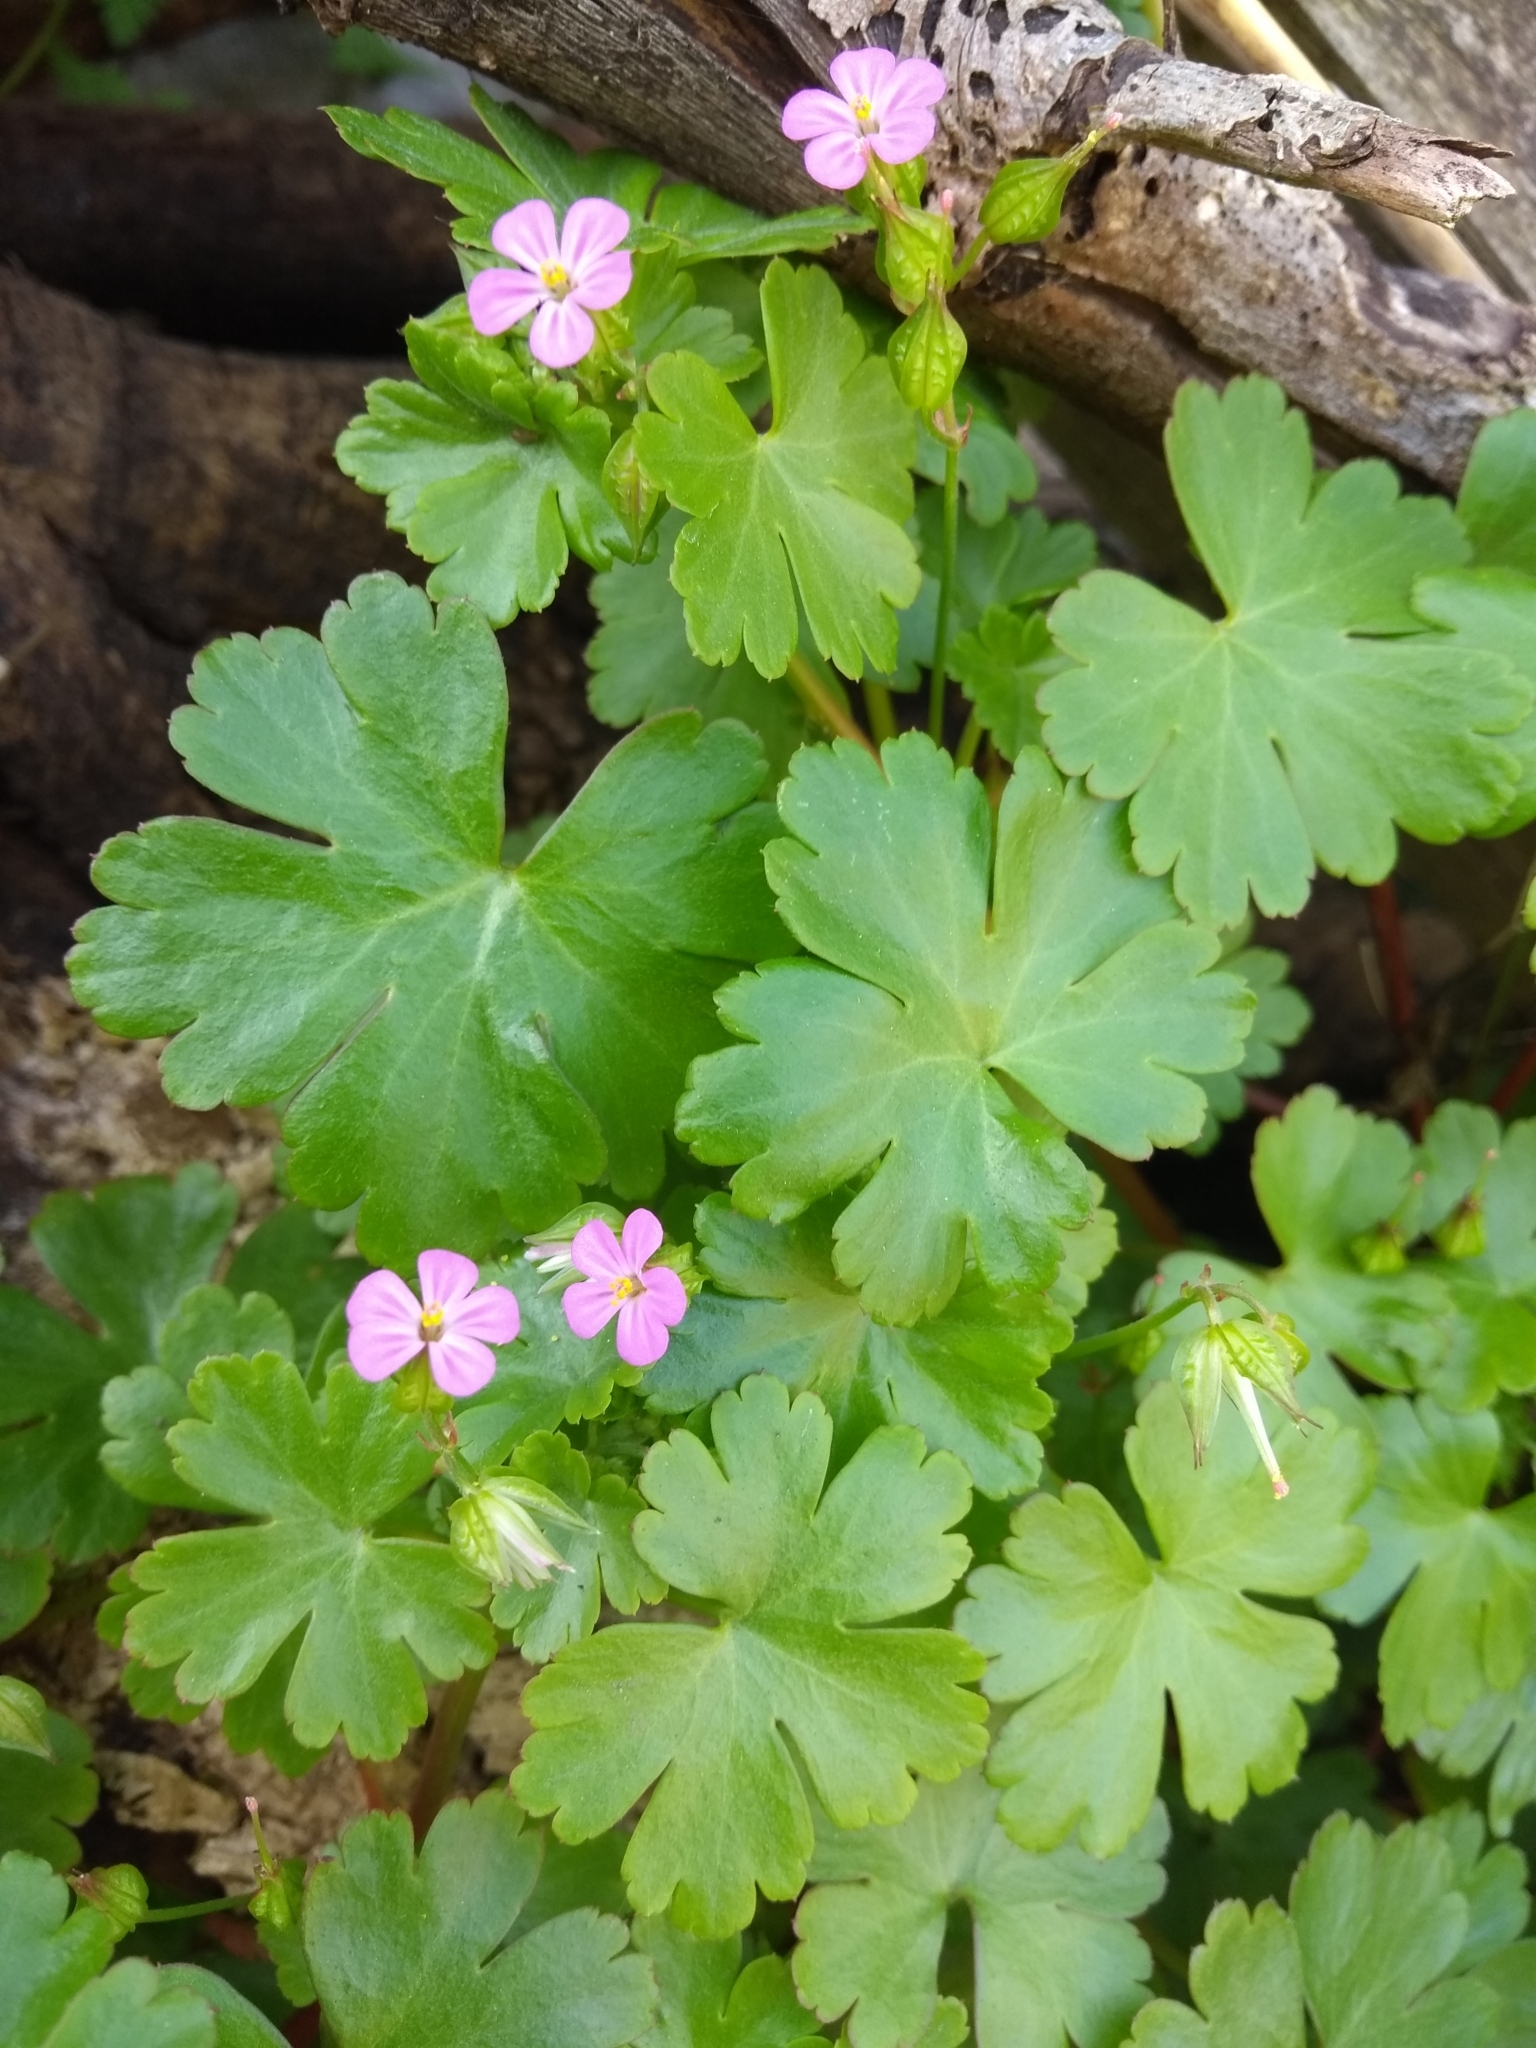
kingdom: Plantae
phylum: Tracheophyta
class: Magnoliopsida
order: Geraniales
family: Geraniaceae
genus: Geranium
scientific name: Geranium lucidum
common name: Shining crane's-bill
